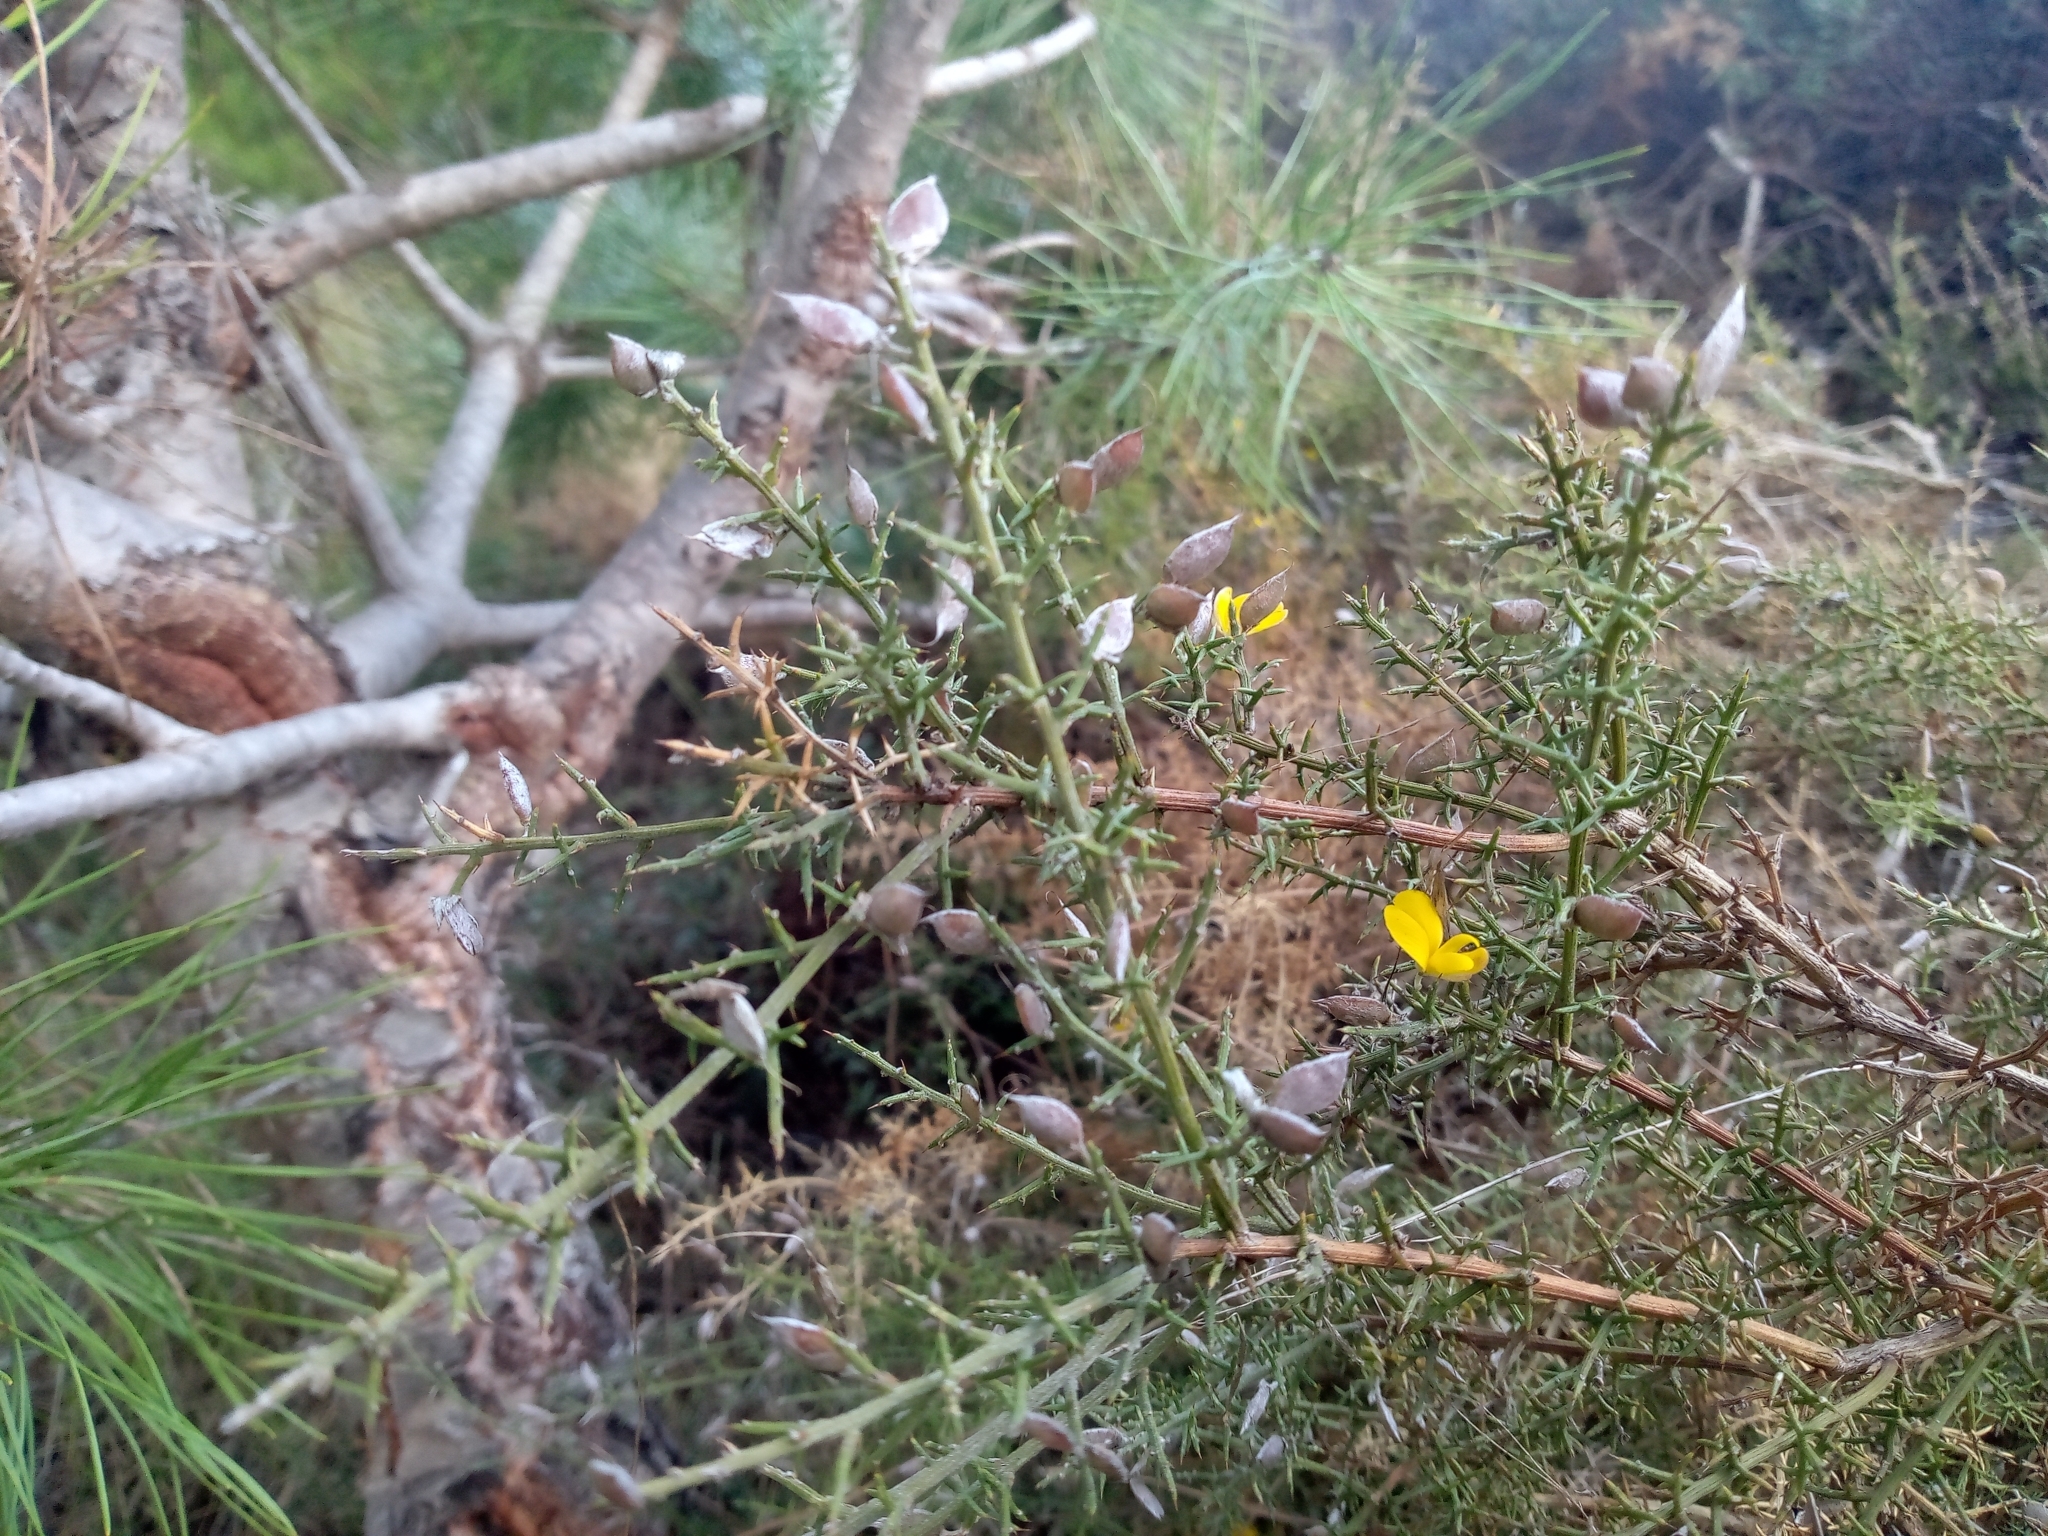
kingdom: Plantae
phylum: Tracheophyta
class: Magnoliopsida
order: Fabales
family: Fabaceae
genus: Stauracanthus
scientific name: Stauracanthus boivinii
